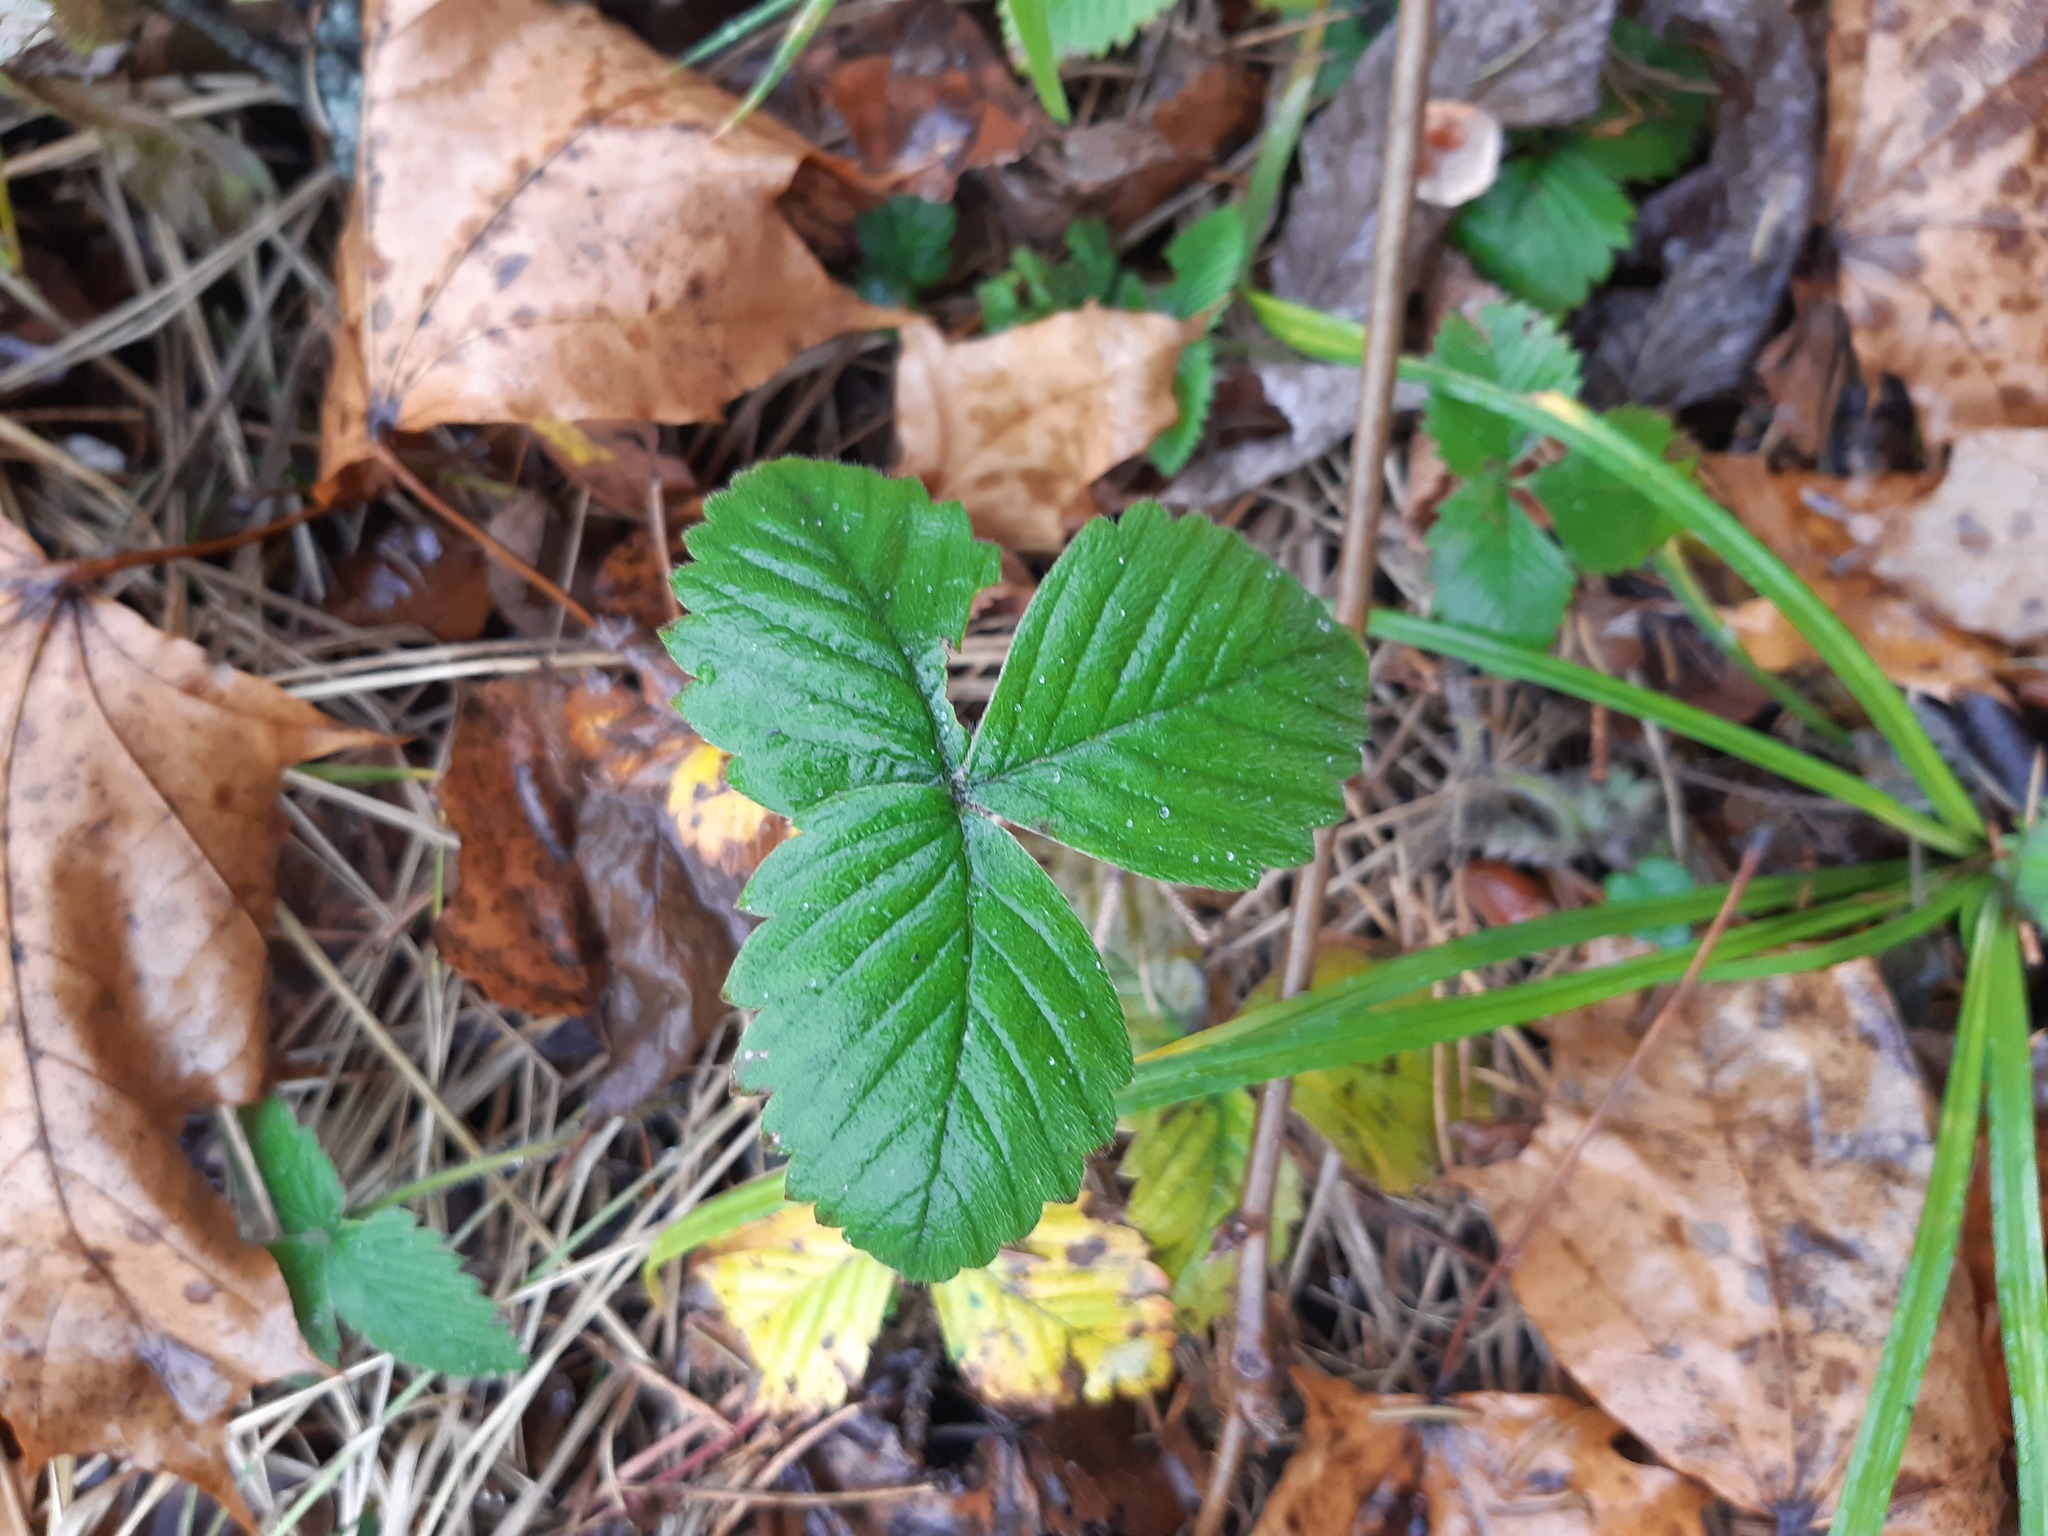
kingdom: Plantae
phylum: Tracheophyta
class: Magnoliopsida
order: Rosales
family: Rosaceae
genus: Fragaria
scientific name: Fragaria vesca
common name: Wild strawberry
